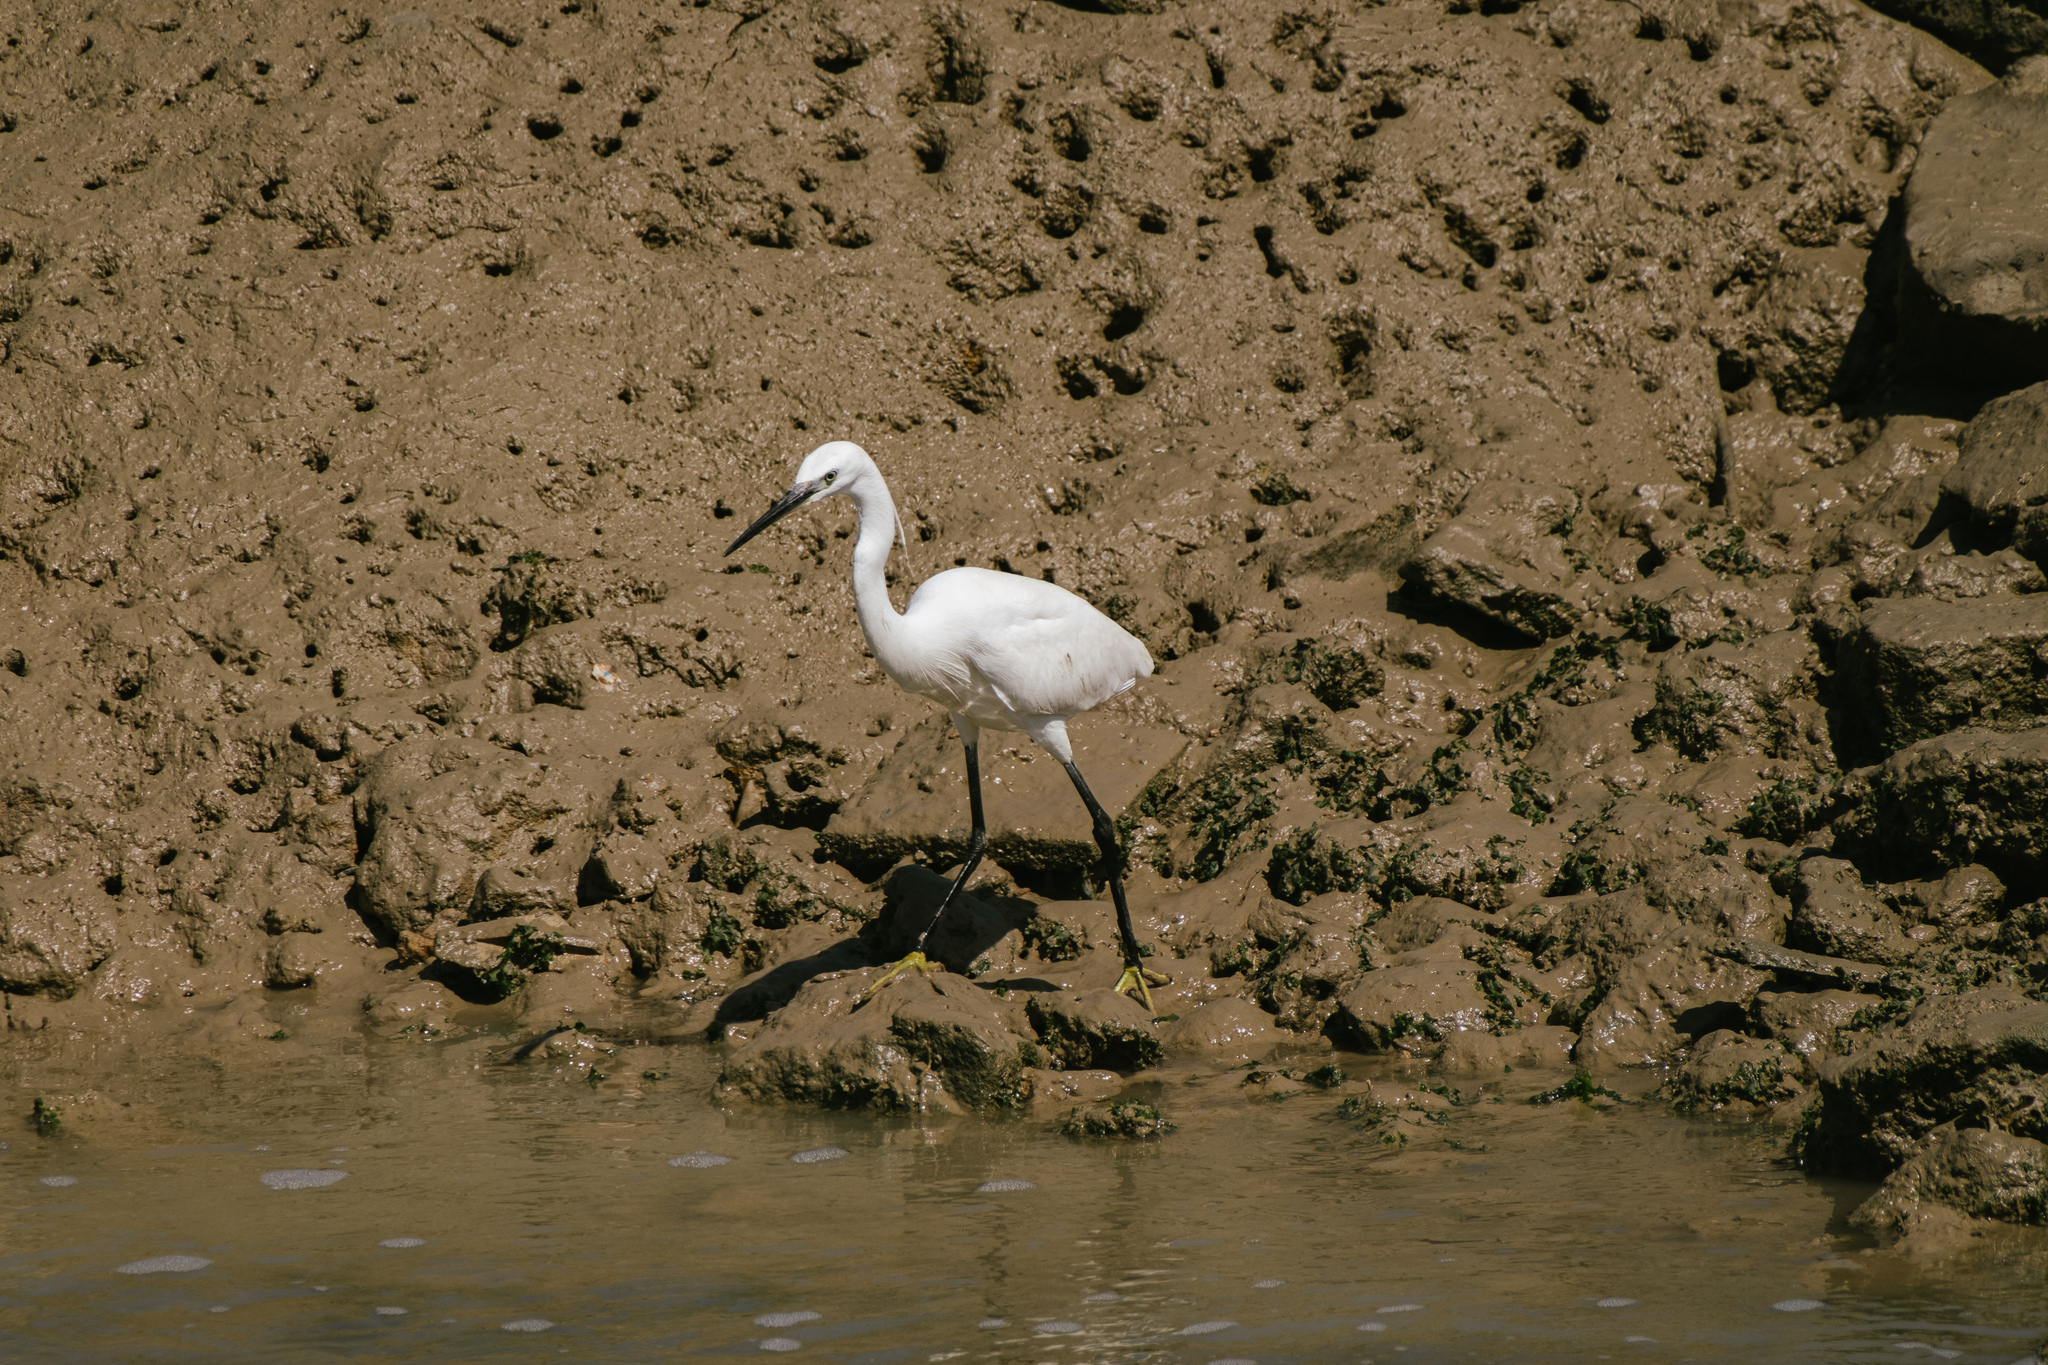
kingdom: Animalia
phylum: Chordata
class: Aves
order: Pelecaniformes
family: Ardeidae
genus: Egretta
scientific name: Egretta garzetta
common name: Little egret
